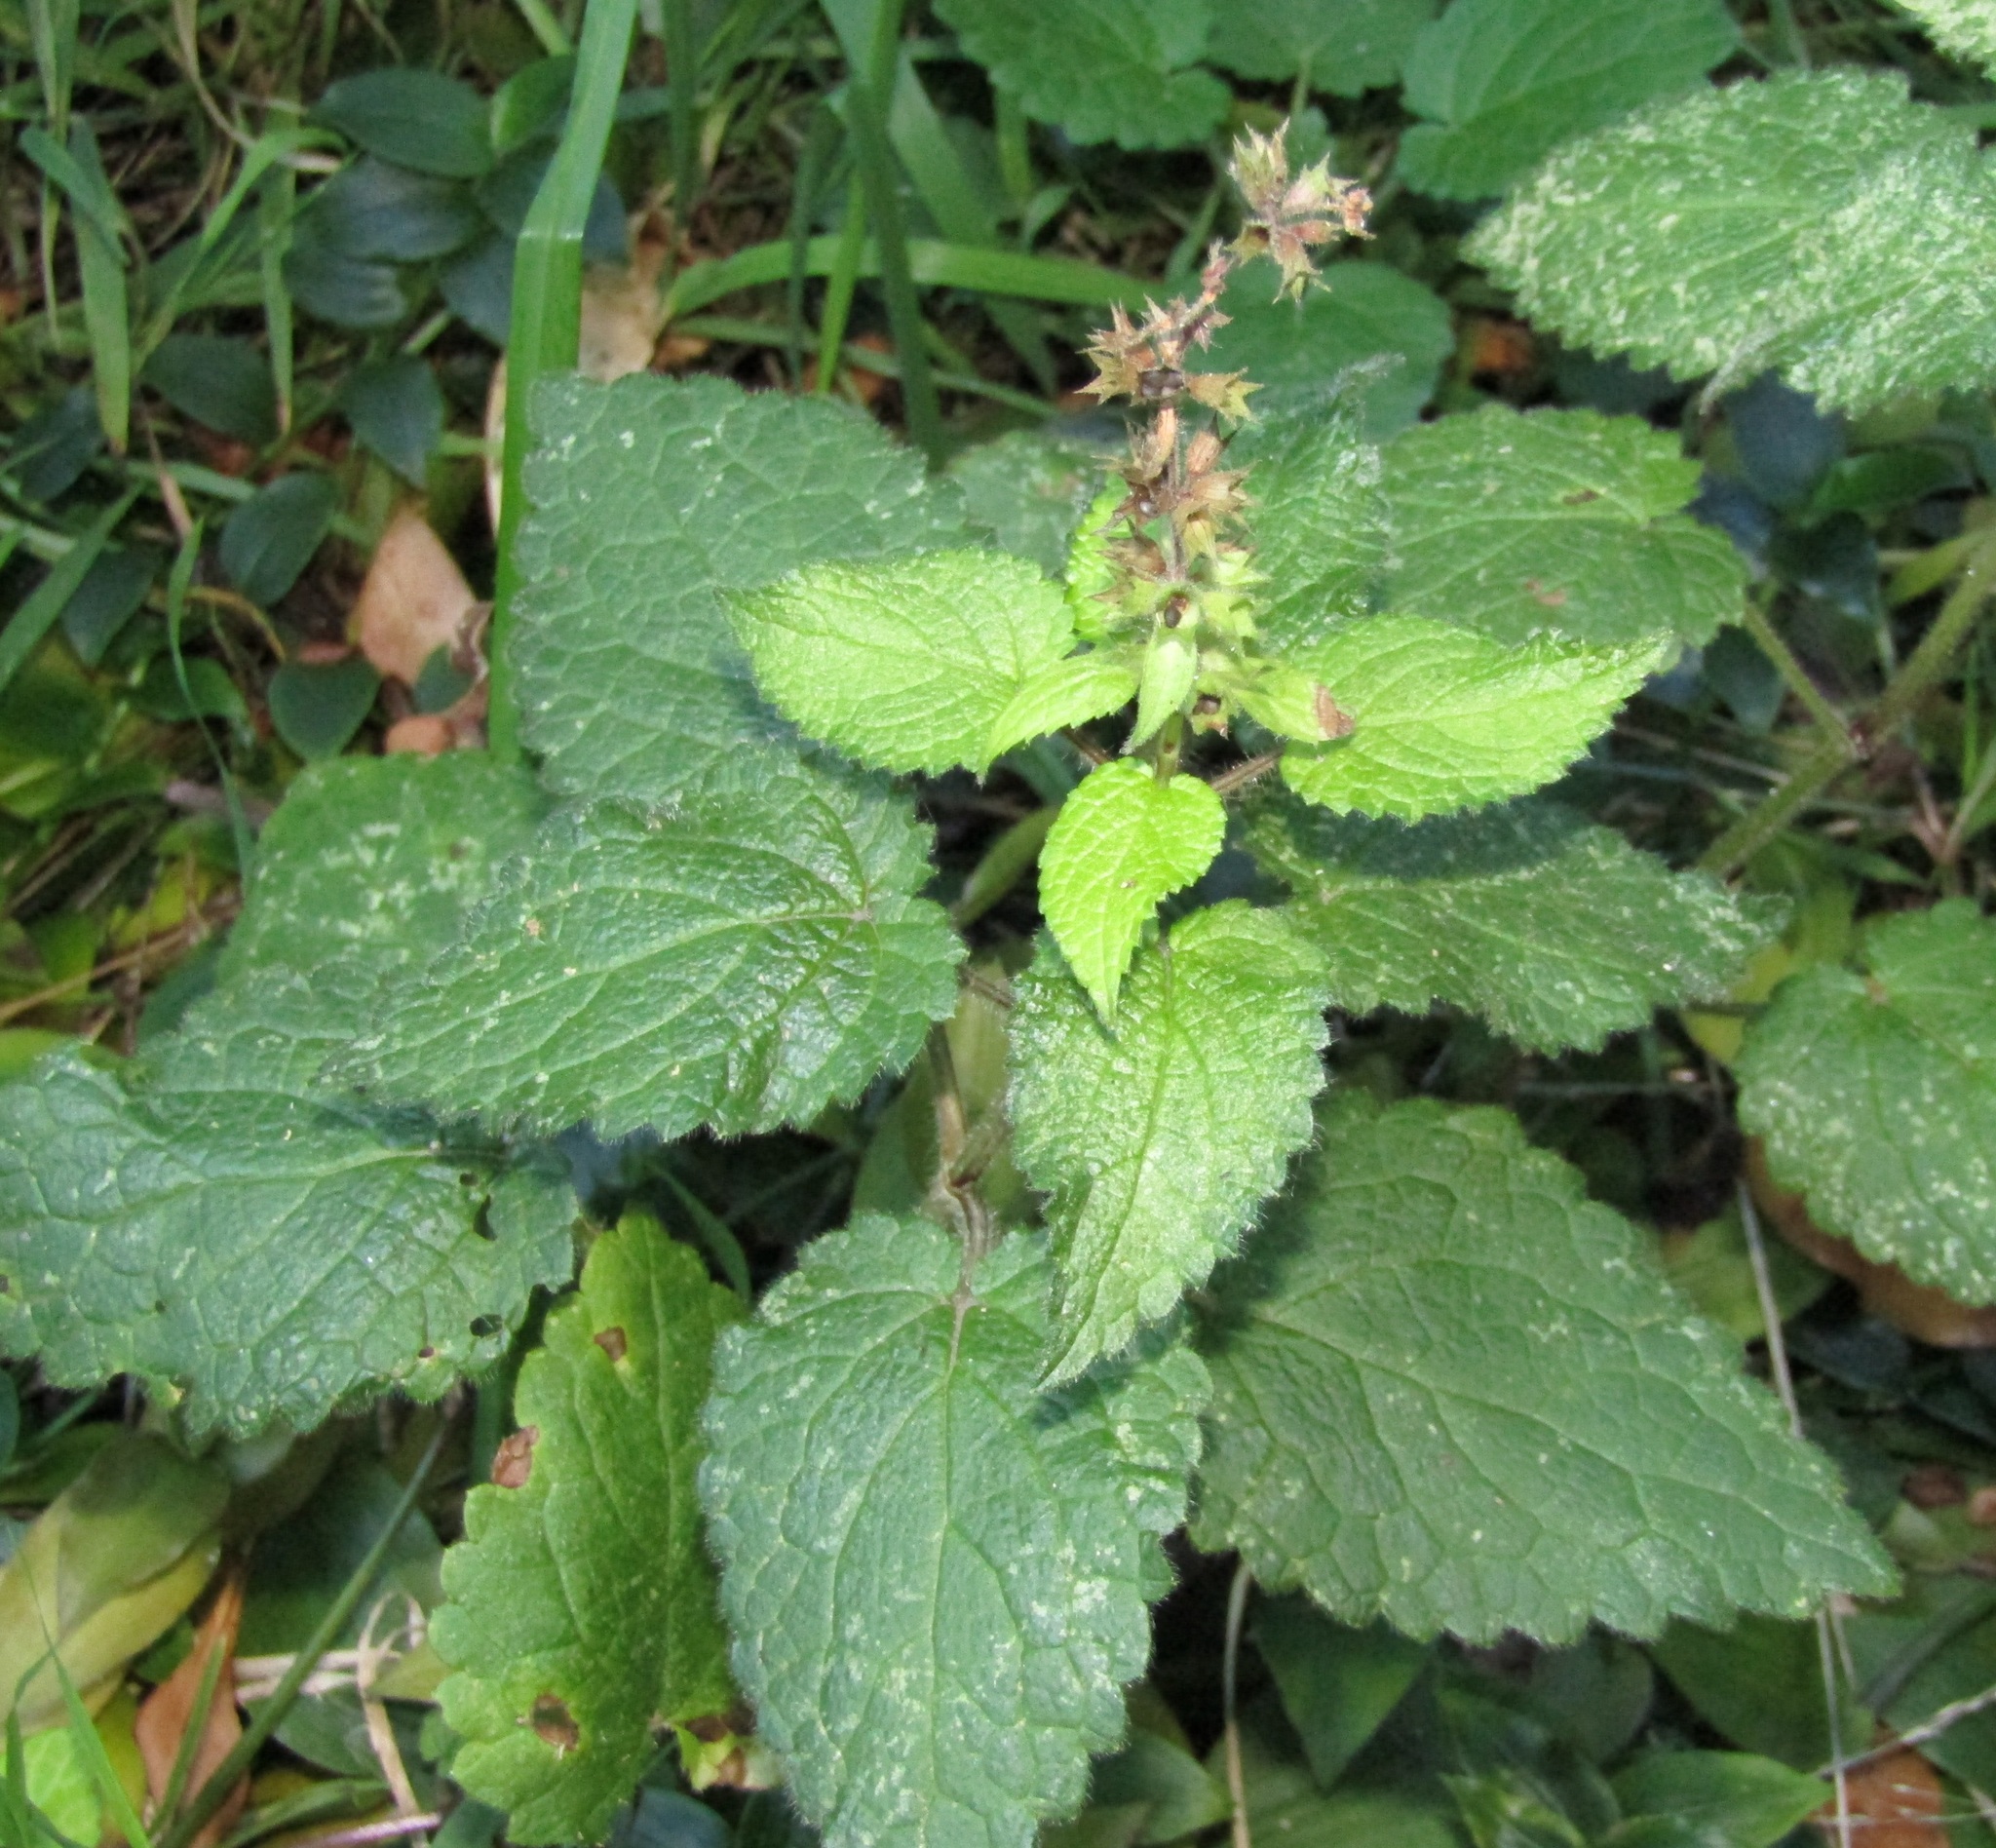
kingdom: Plantae
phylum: Tracheophyta
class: Magnoliopsida
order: Lamiales
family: Lamiaceae
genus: Stachys
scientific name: Stachys sylvatica
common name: Hedge woundwort
